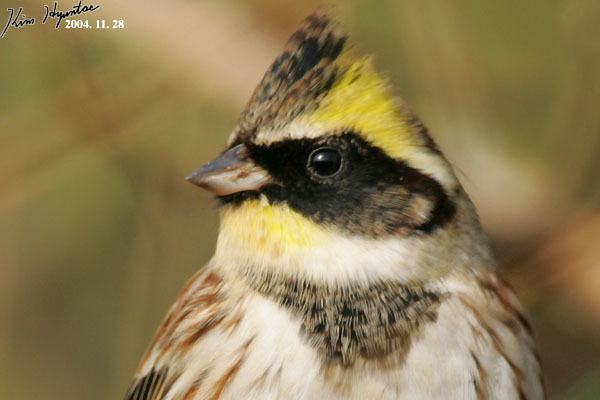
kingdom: Animalia
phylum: Chordata
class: Aves
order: Passeriformes
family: Emberizidae
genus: Emberiza
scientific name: Emberiza elegans
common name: Yellow-throated bunting
